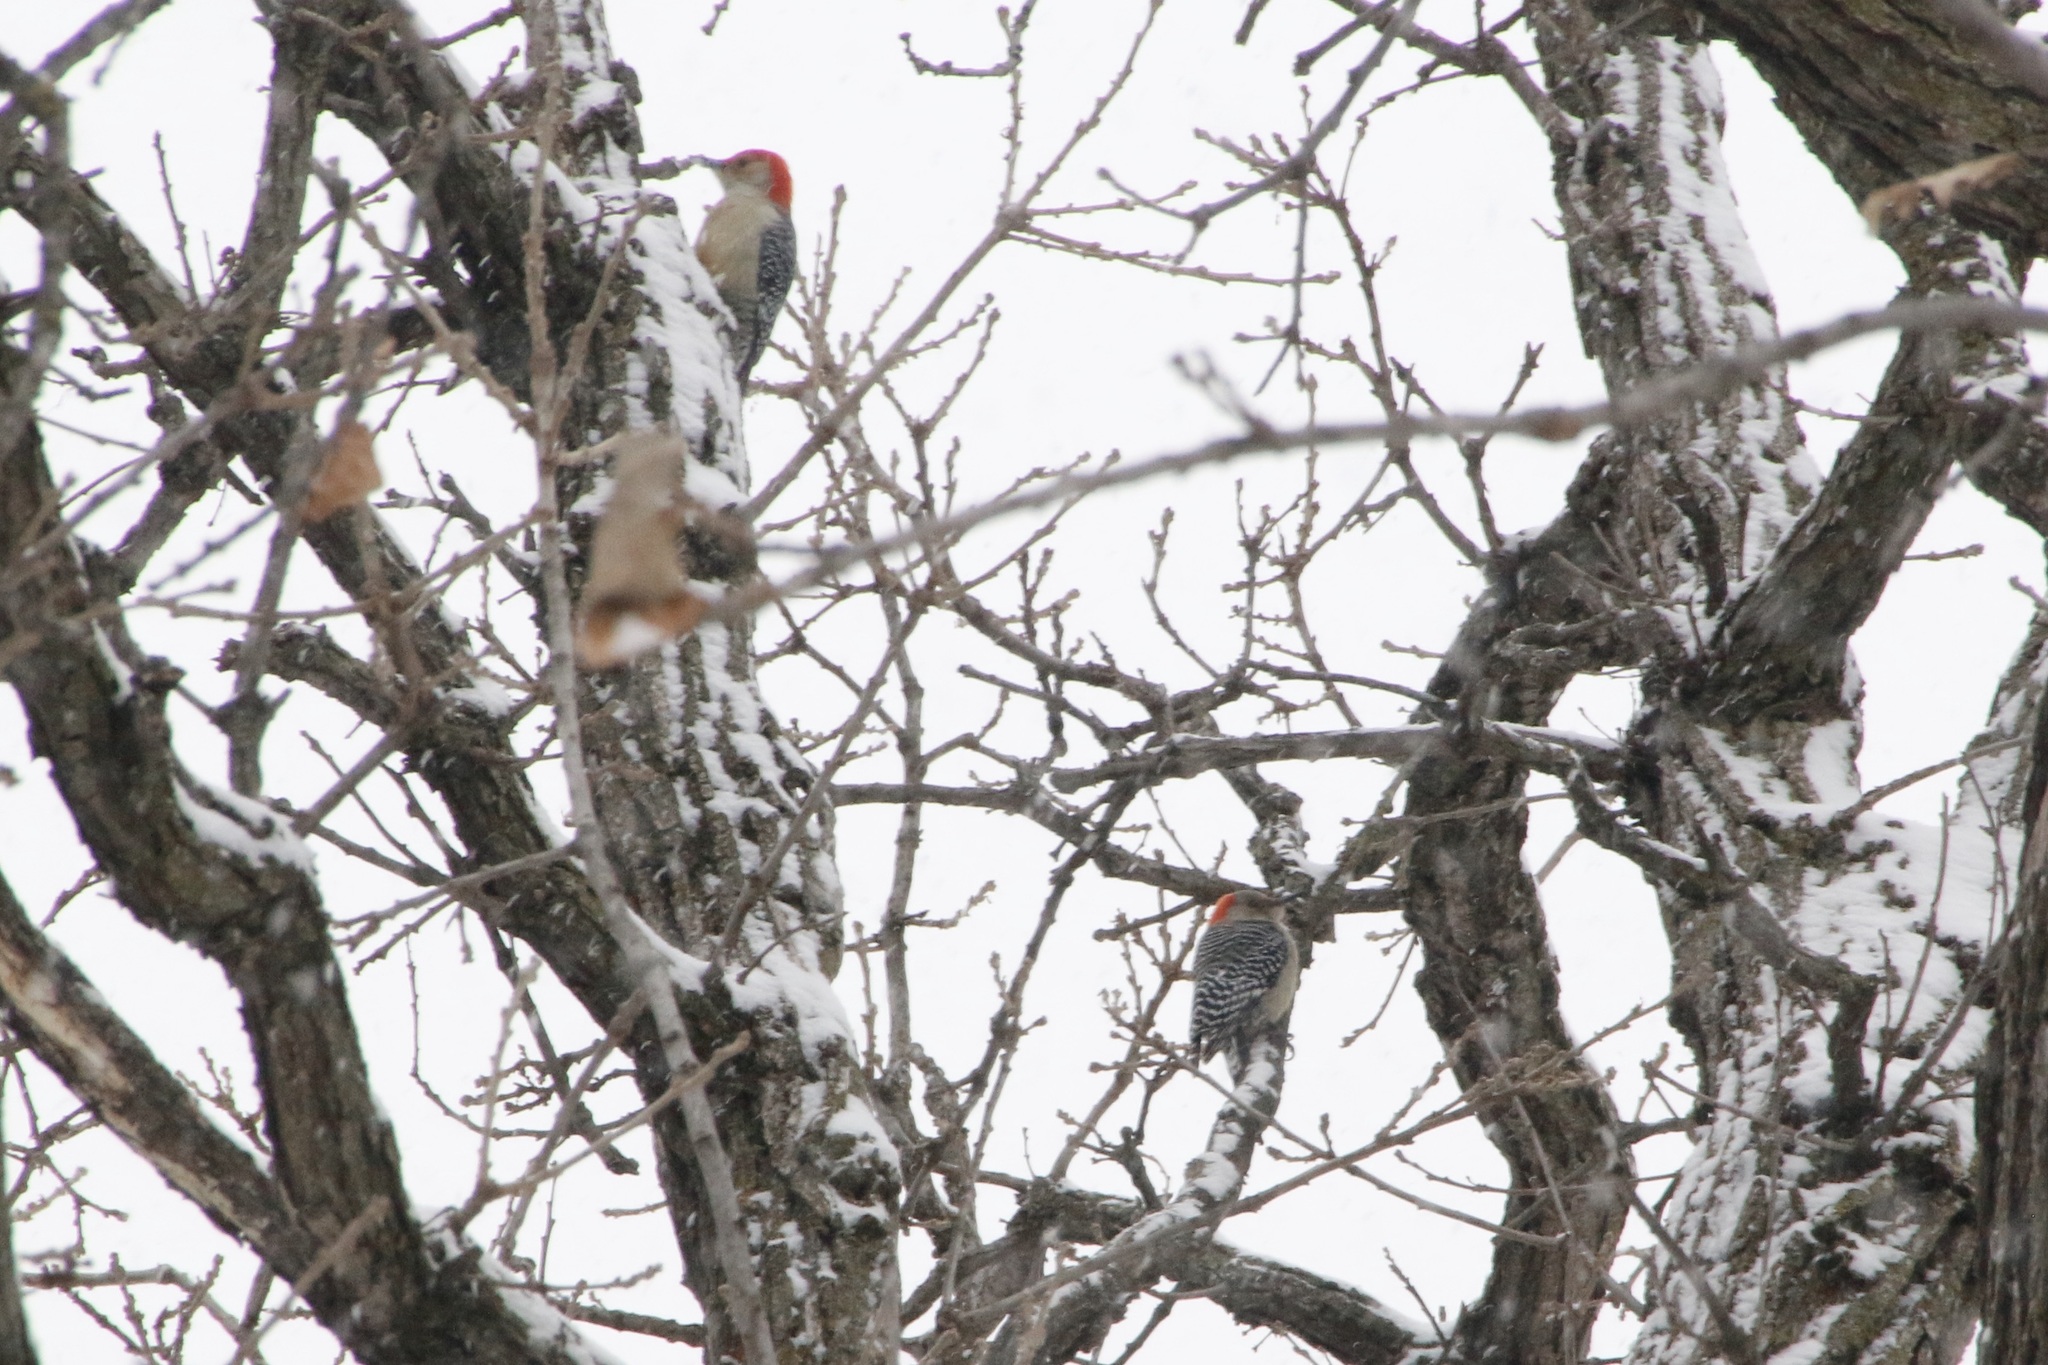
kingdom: Animalia
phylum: Chordata
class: Aves
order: Piciformes
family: Picidae
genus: Melanerpes
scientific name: Melanerpes carolinus
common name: Red-bellied woodpecker
